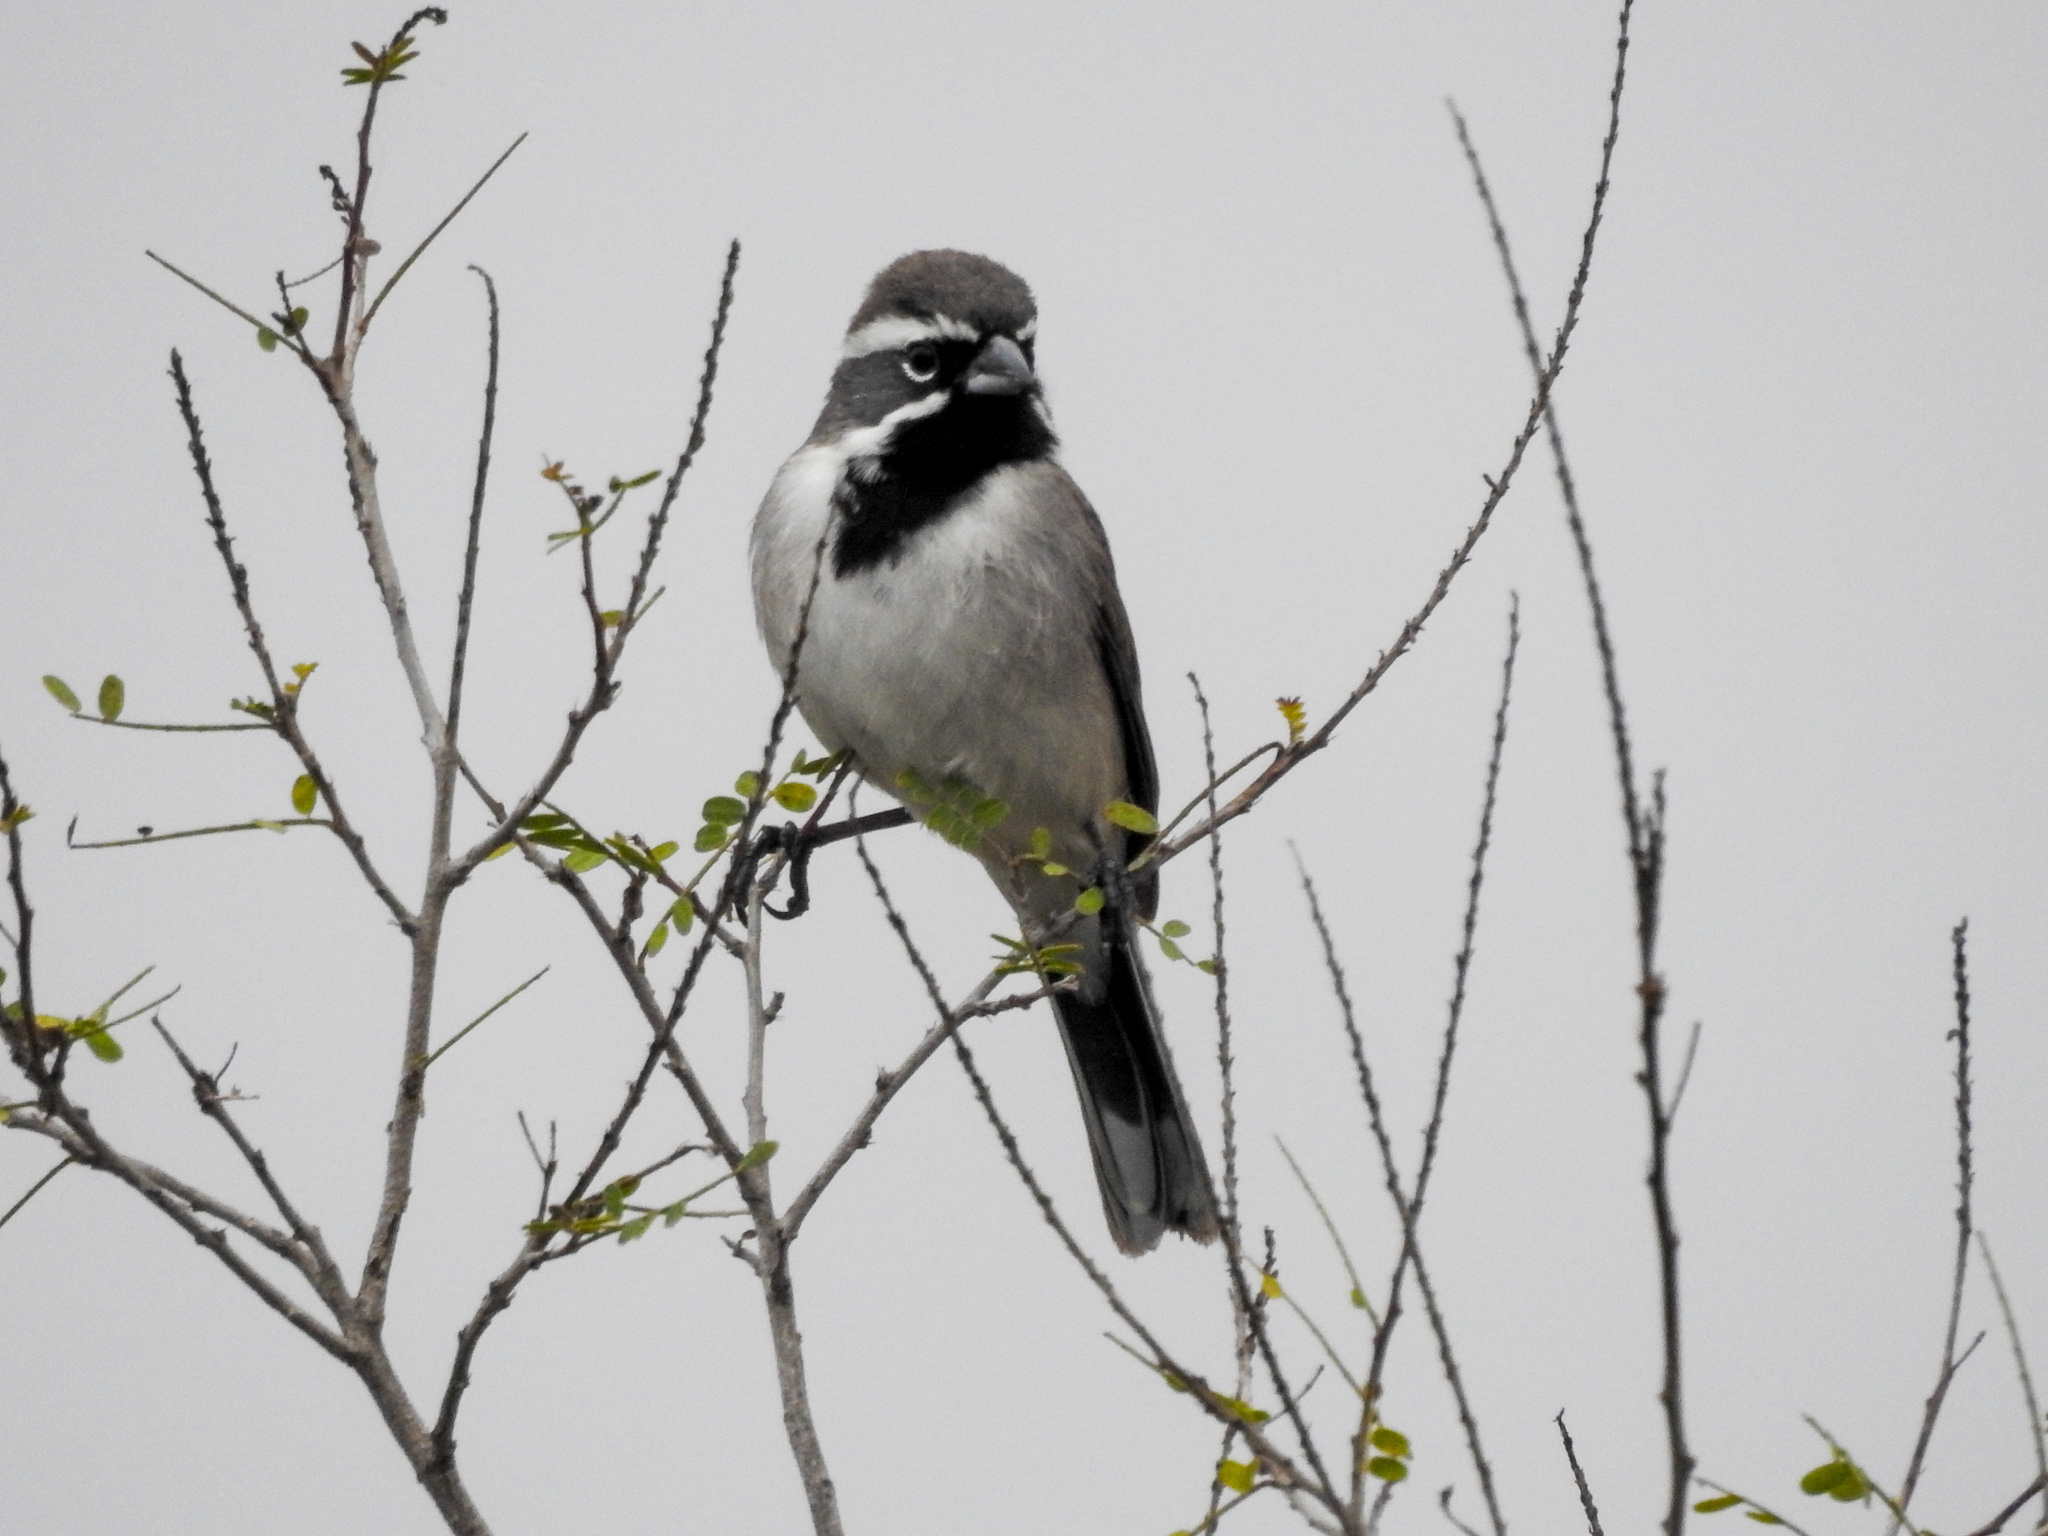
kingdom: Animalia
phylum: Chordata
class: Aves
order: Passeriformes
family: Passerellidae
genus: Amphispiza
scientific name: Amphispiza bilineata
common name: Black-throated sparrow
